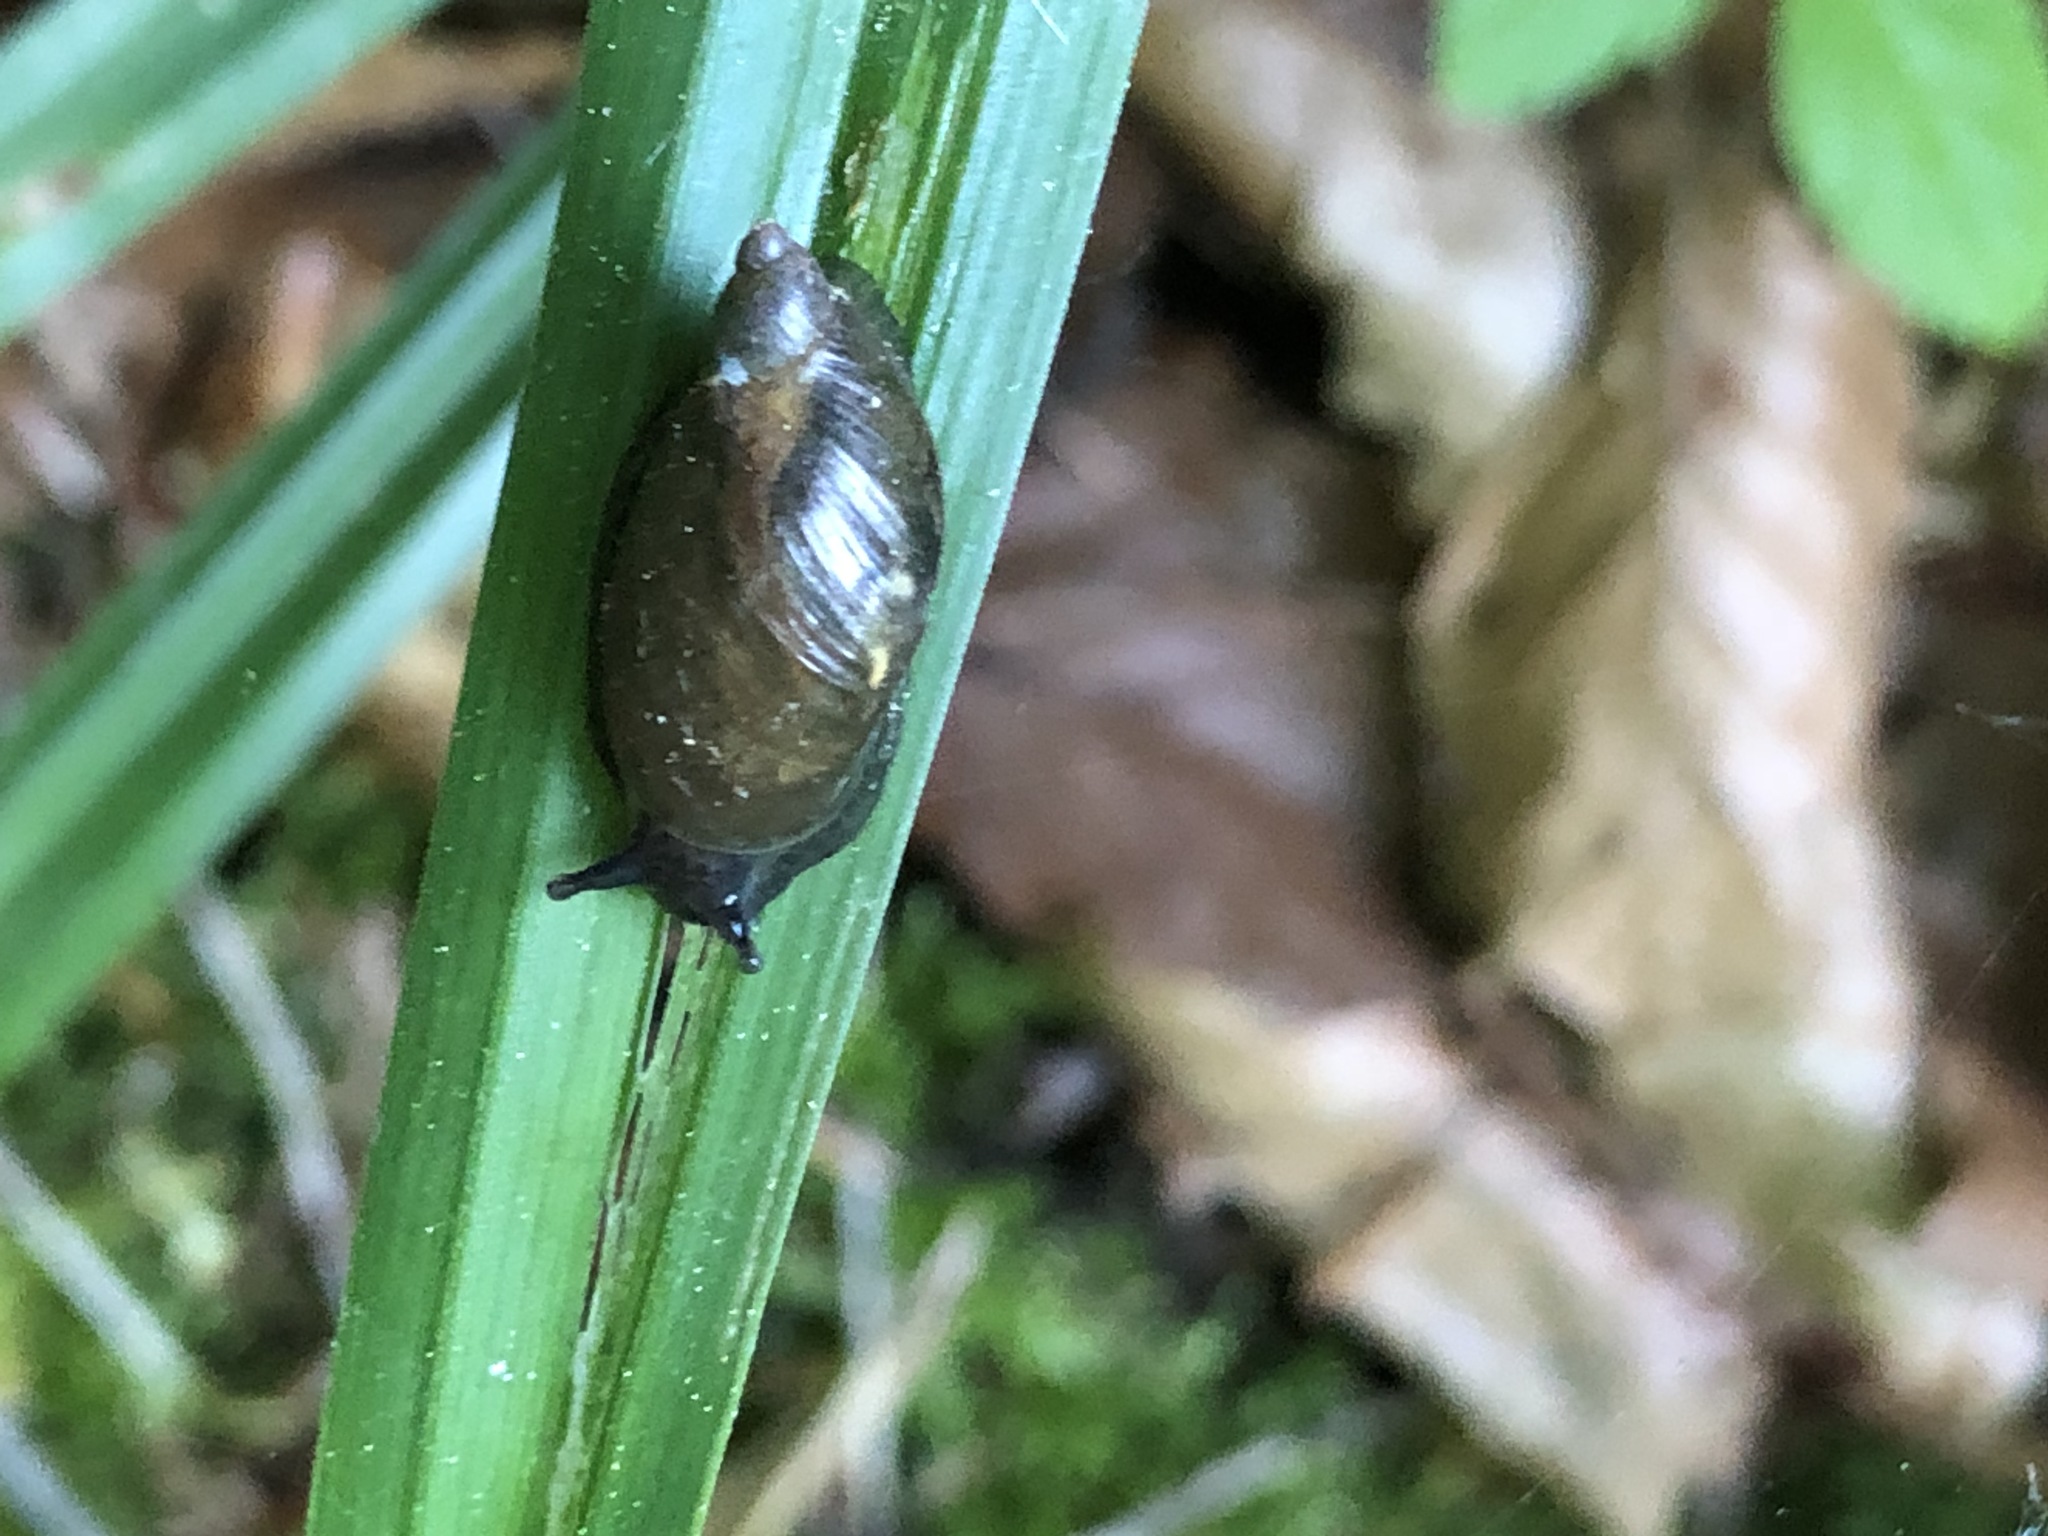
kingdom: Animalia
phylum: Mollusca
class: Gastropoda
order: Stylommatophora
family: Succineidae
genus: Succinea
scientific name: Succinea putris
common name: European ambersnail
